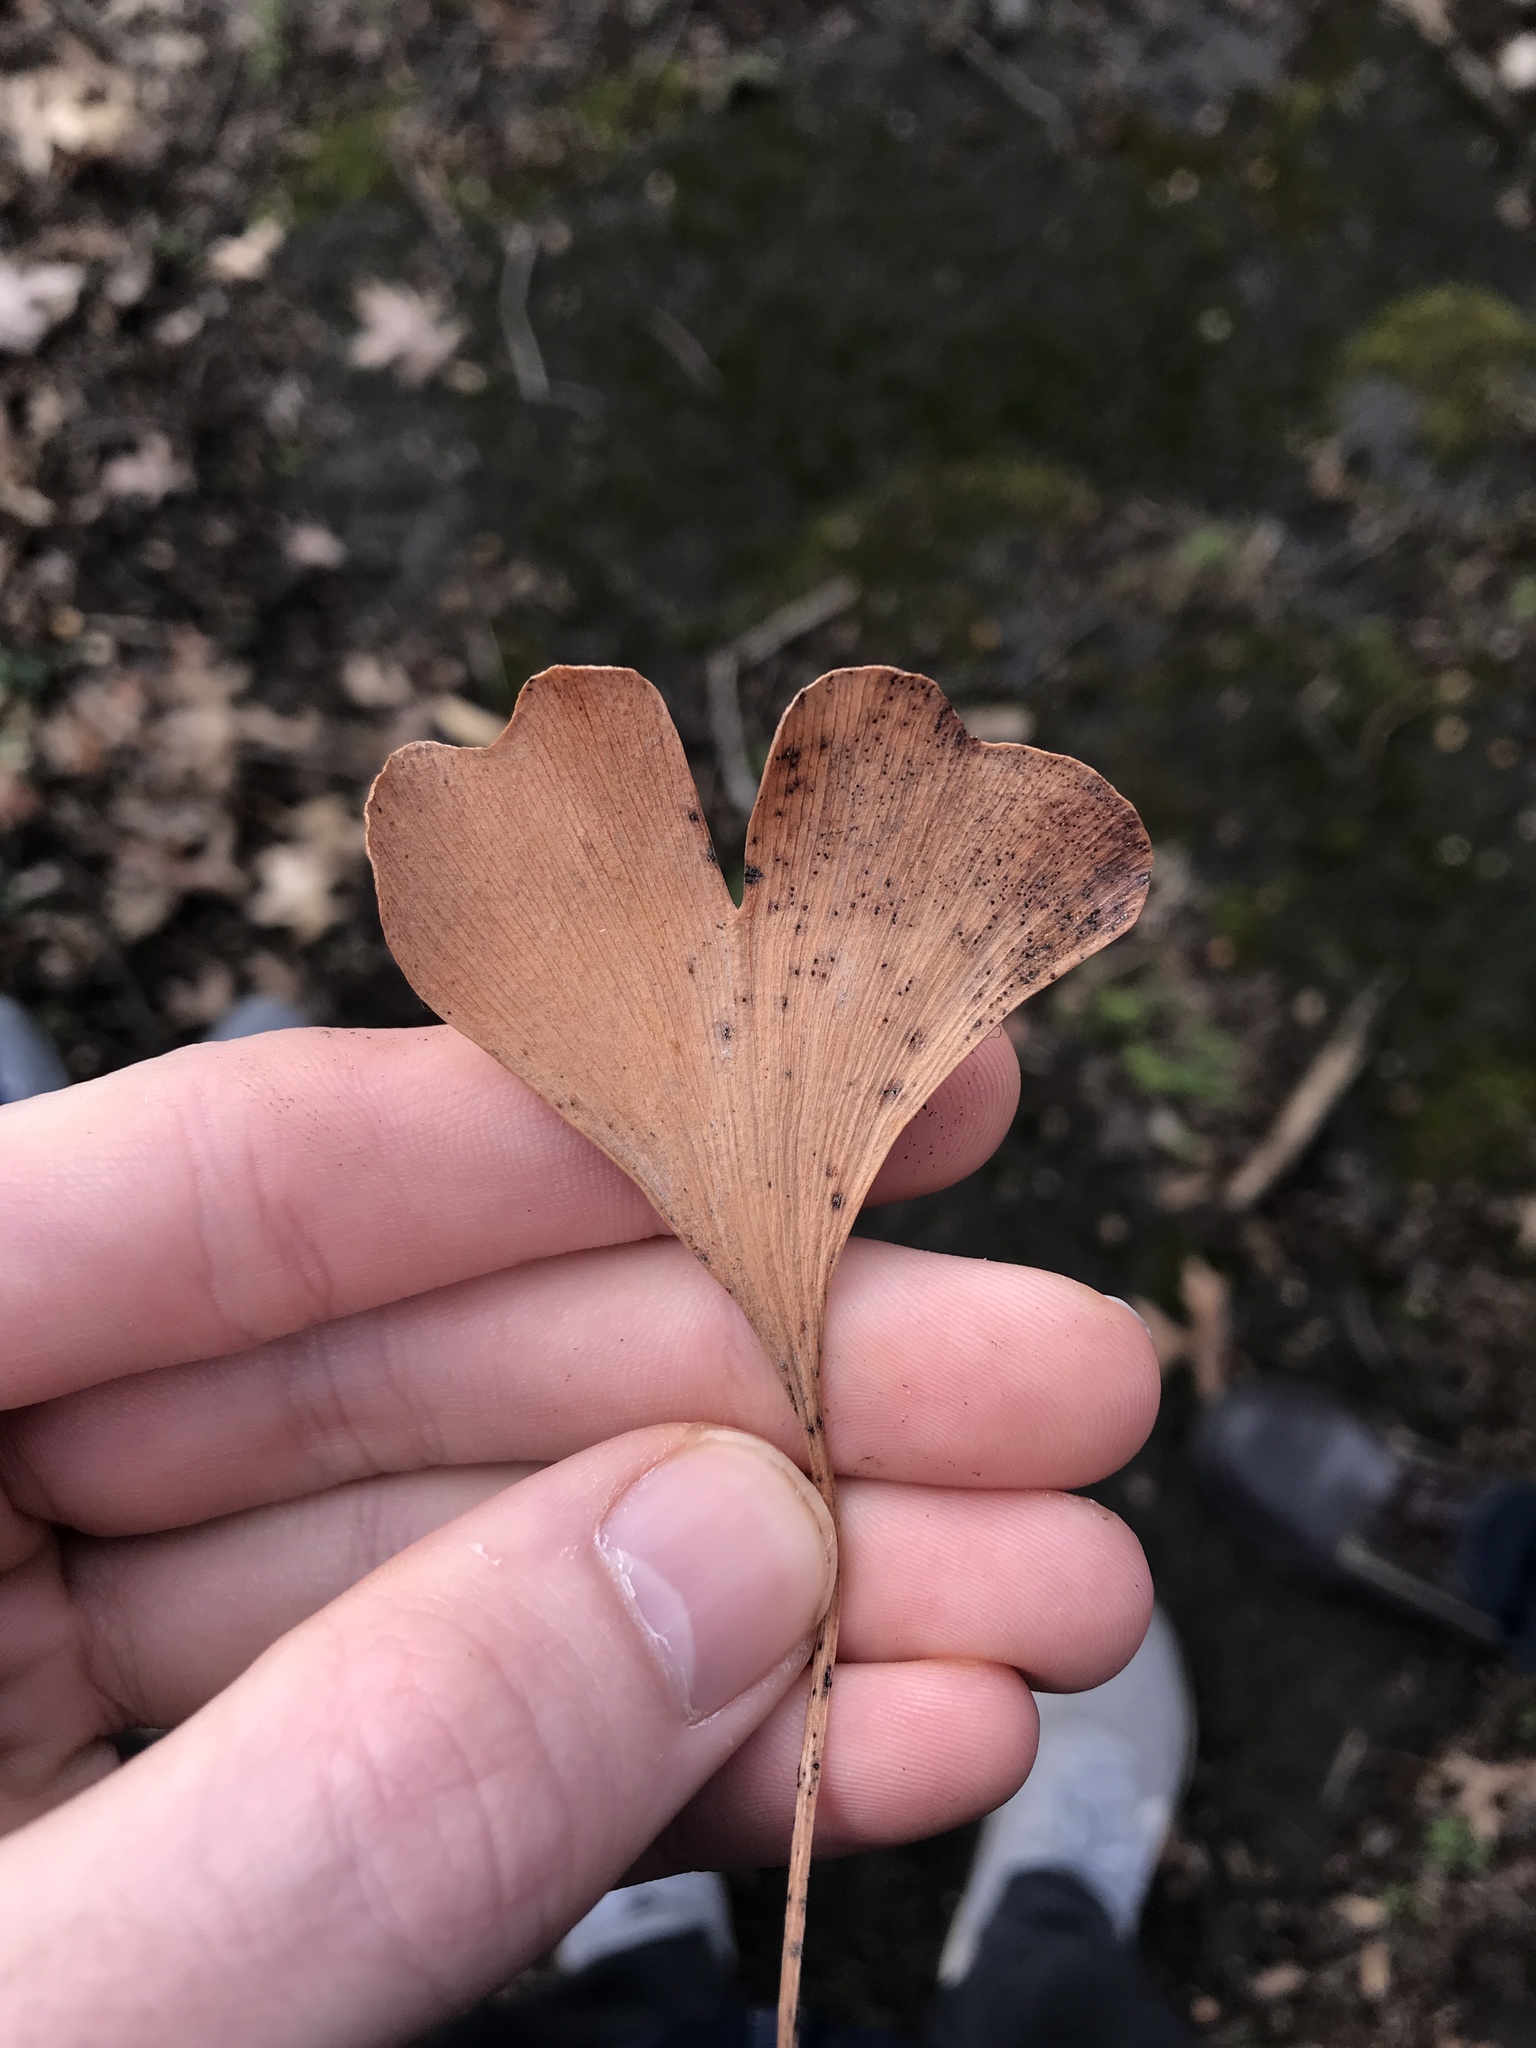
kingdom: Fungi
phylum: Basidiomycota
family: Bartheletiaceae
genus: Bartheletia
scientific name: Bartheletia paradoxa
